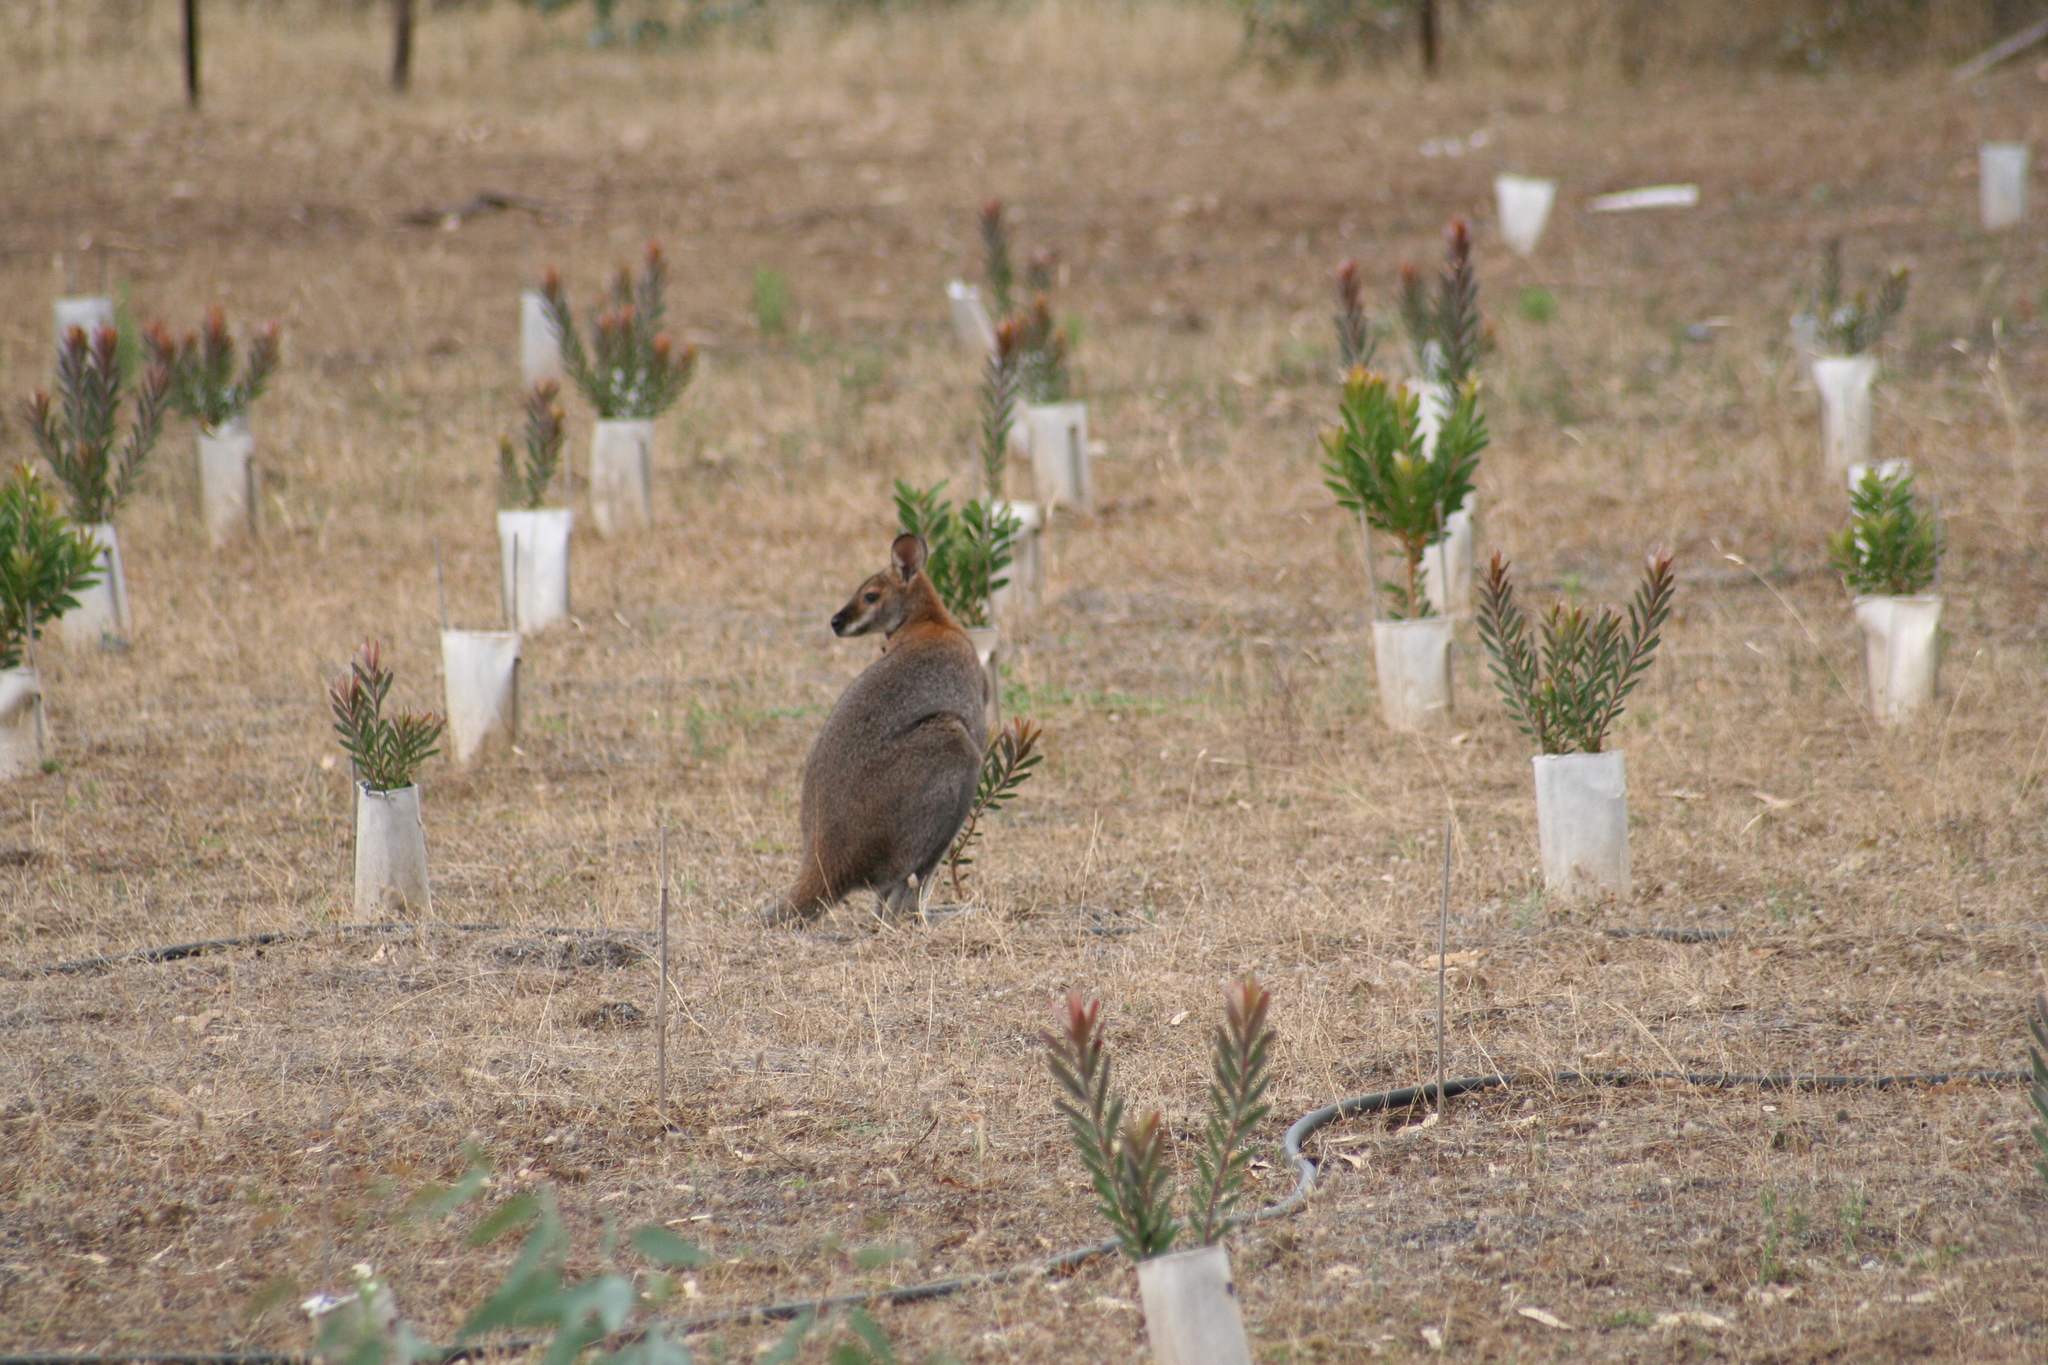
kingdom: Animalia
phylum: Chordata
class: Mammalia
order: Diprotodontia
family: Macropodidae
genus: Notamacropus
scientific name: Notamacropus rufogriseus
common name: Red-necked wallaby
